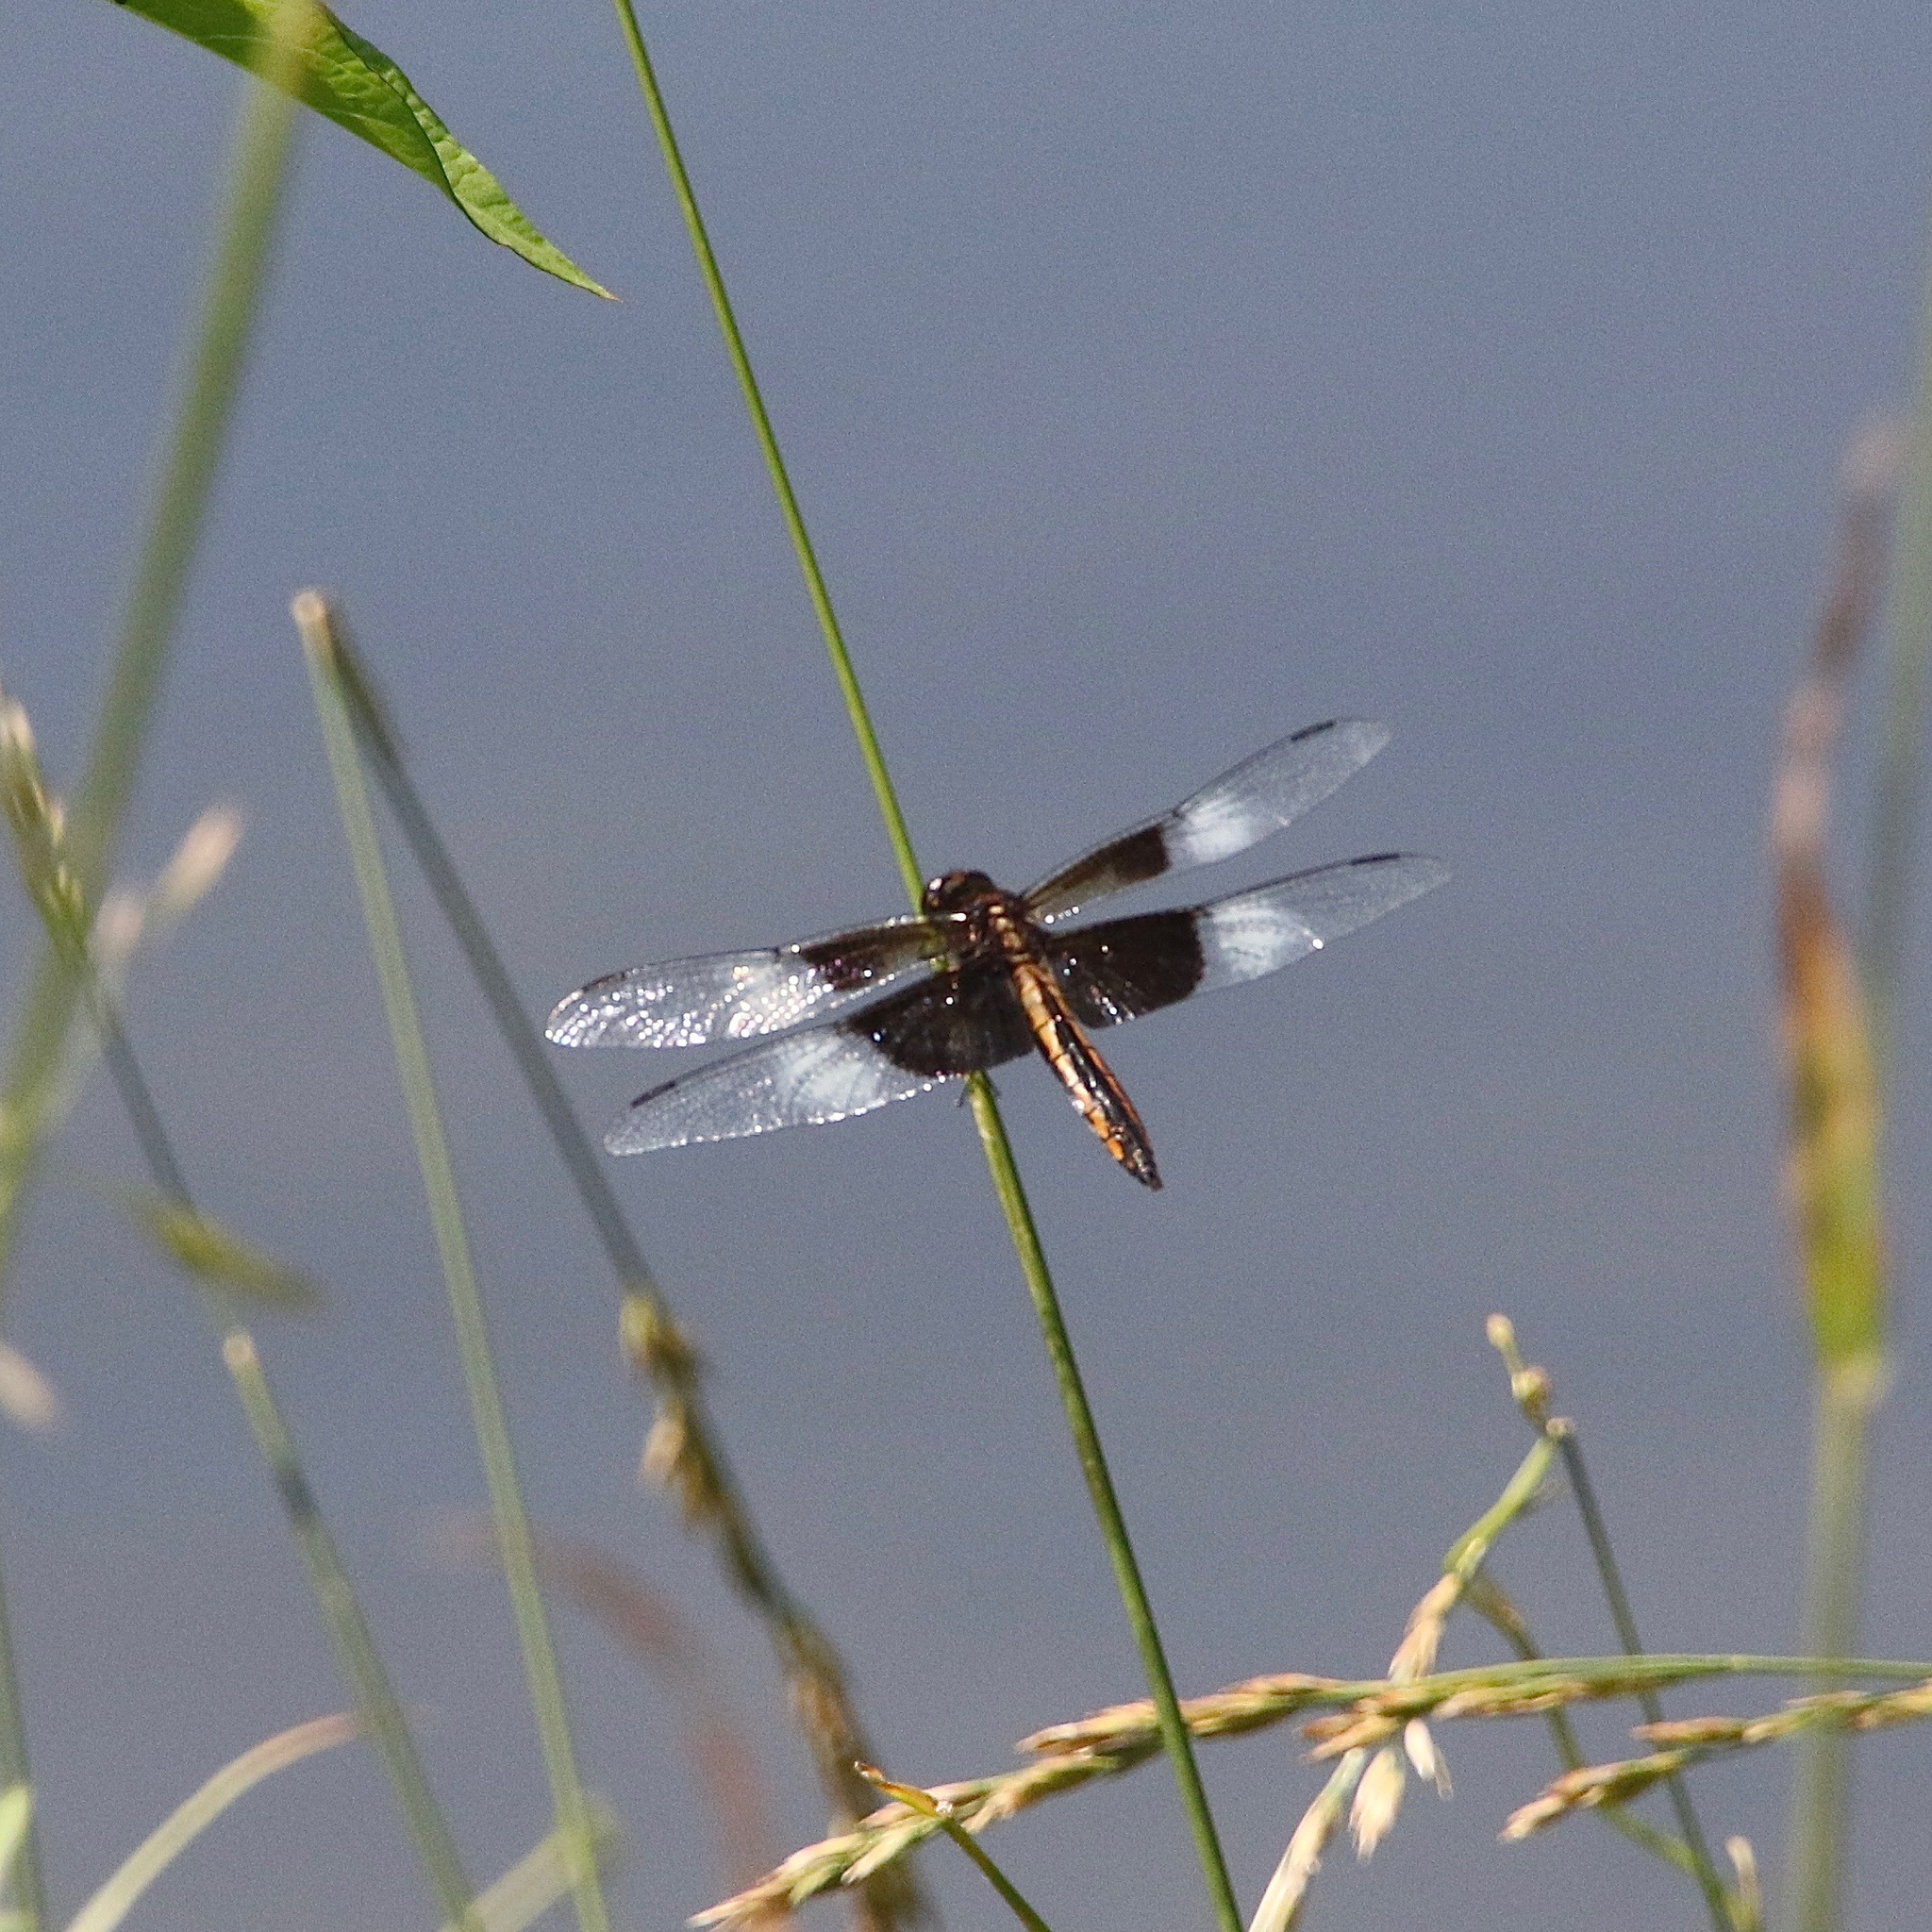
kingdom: Animalia
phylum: Arthropoda
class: Insecta
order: Odonata
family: Libellulidae
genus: Libellula
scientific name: Libellula luctuosa
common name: Widow skimmer
